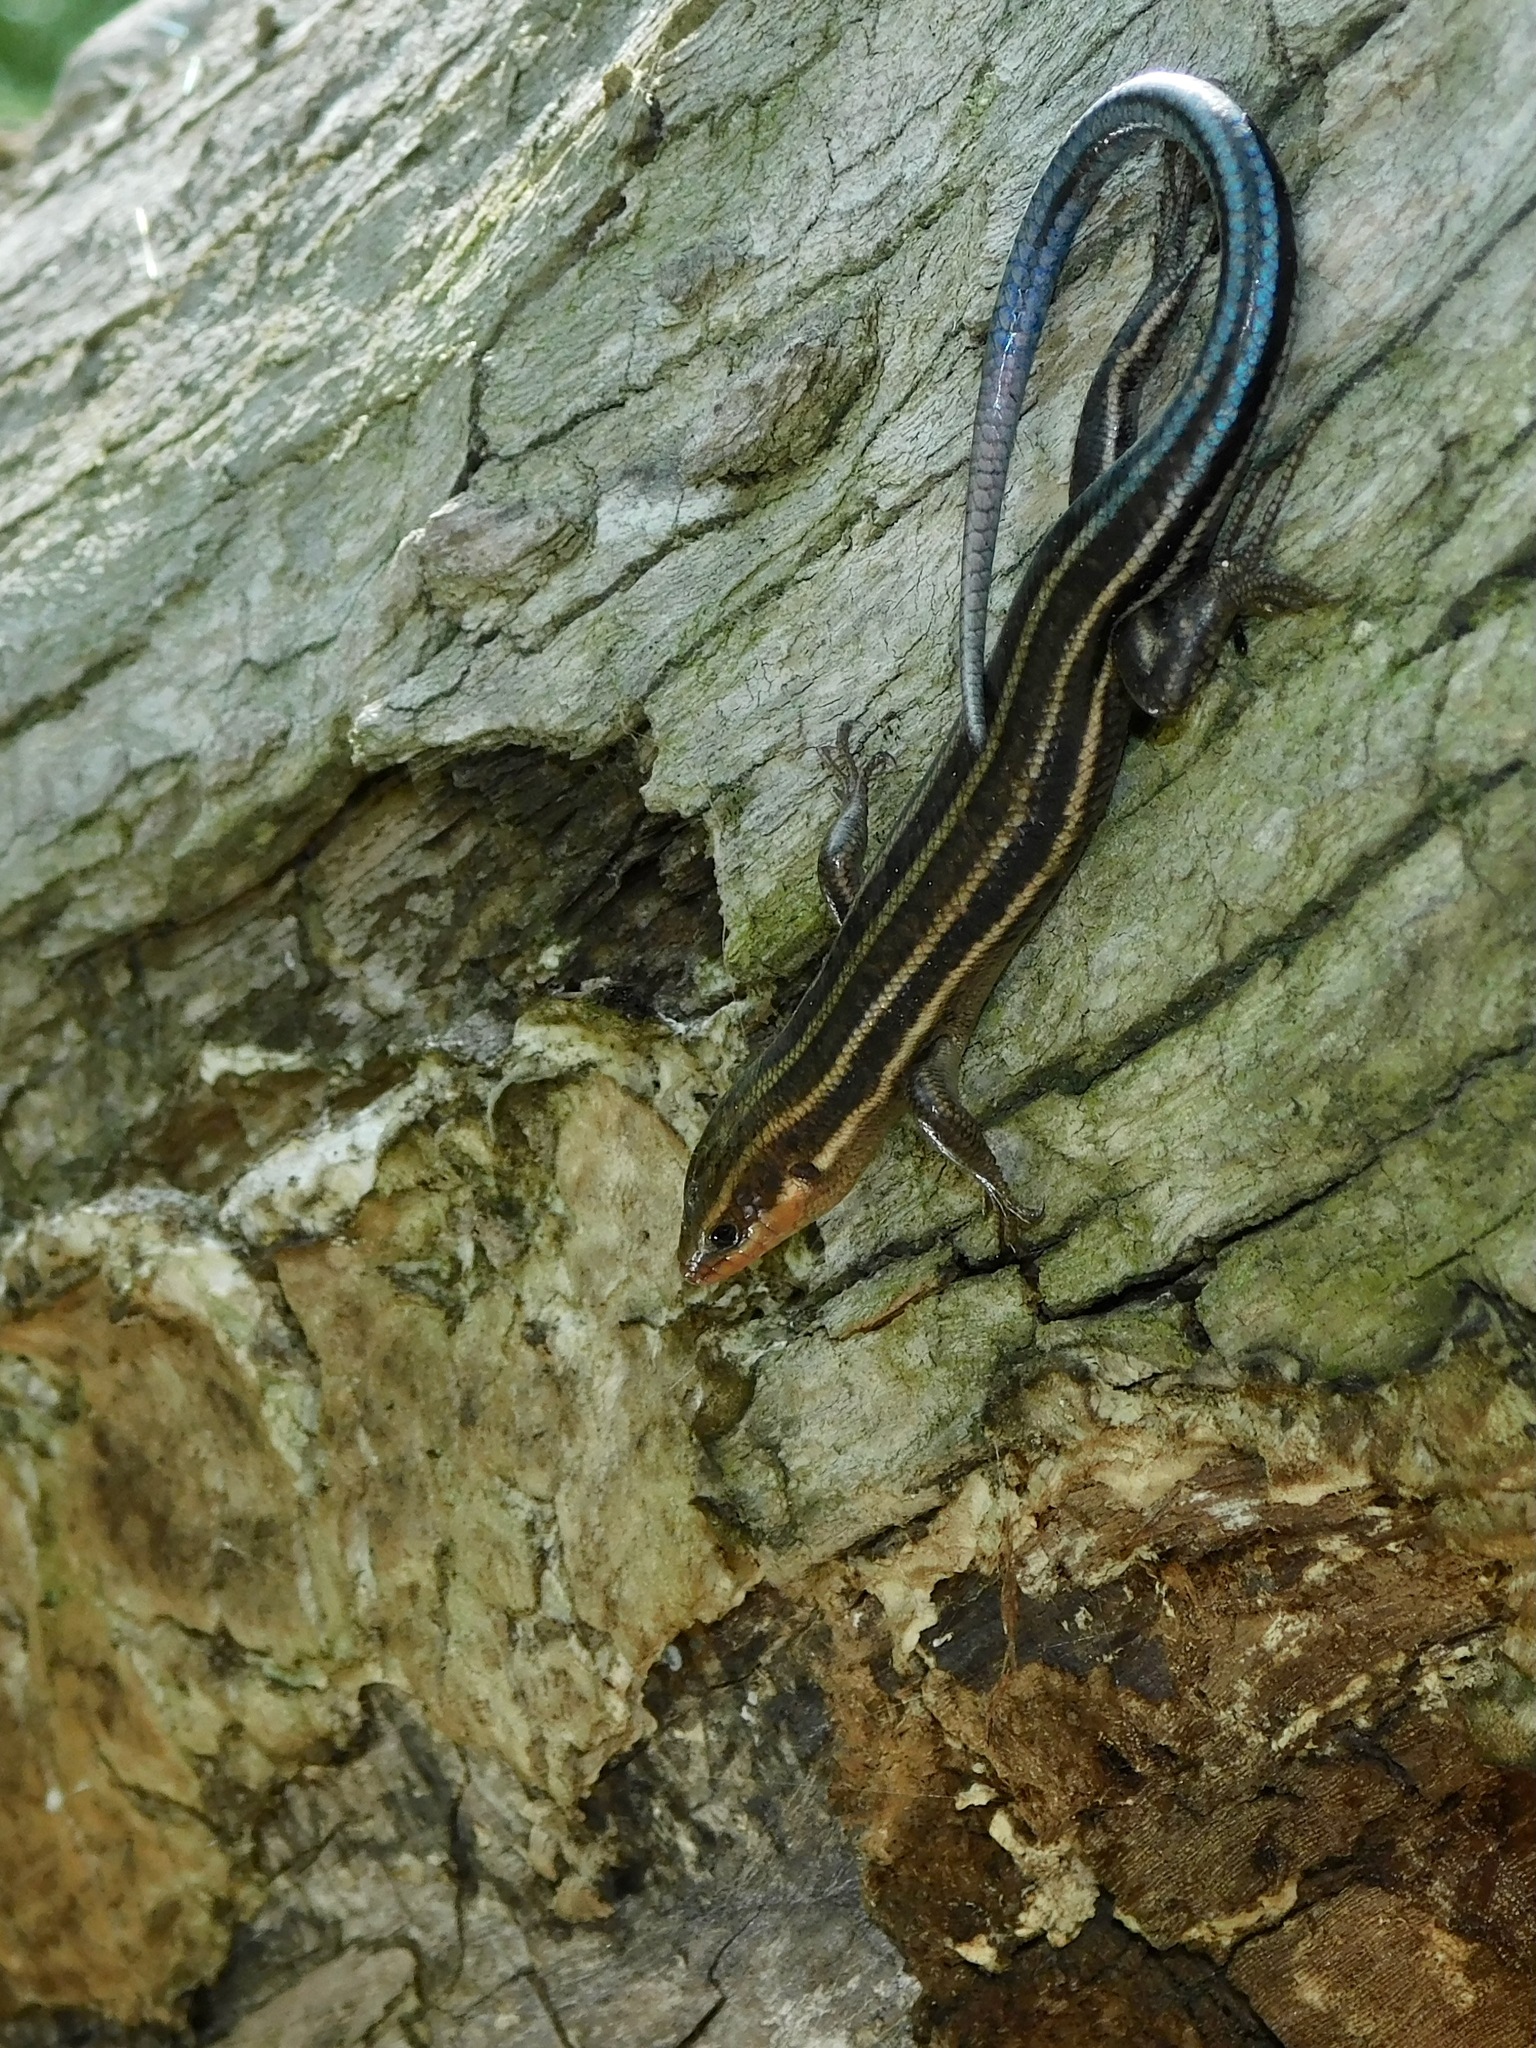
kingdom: Animalia
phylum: Chordata
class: Squamata
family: Scincidae
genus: Plestiodon
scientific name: Plestiodon fasciatus
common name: Five-lined skink
